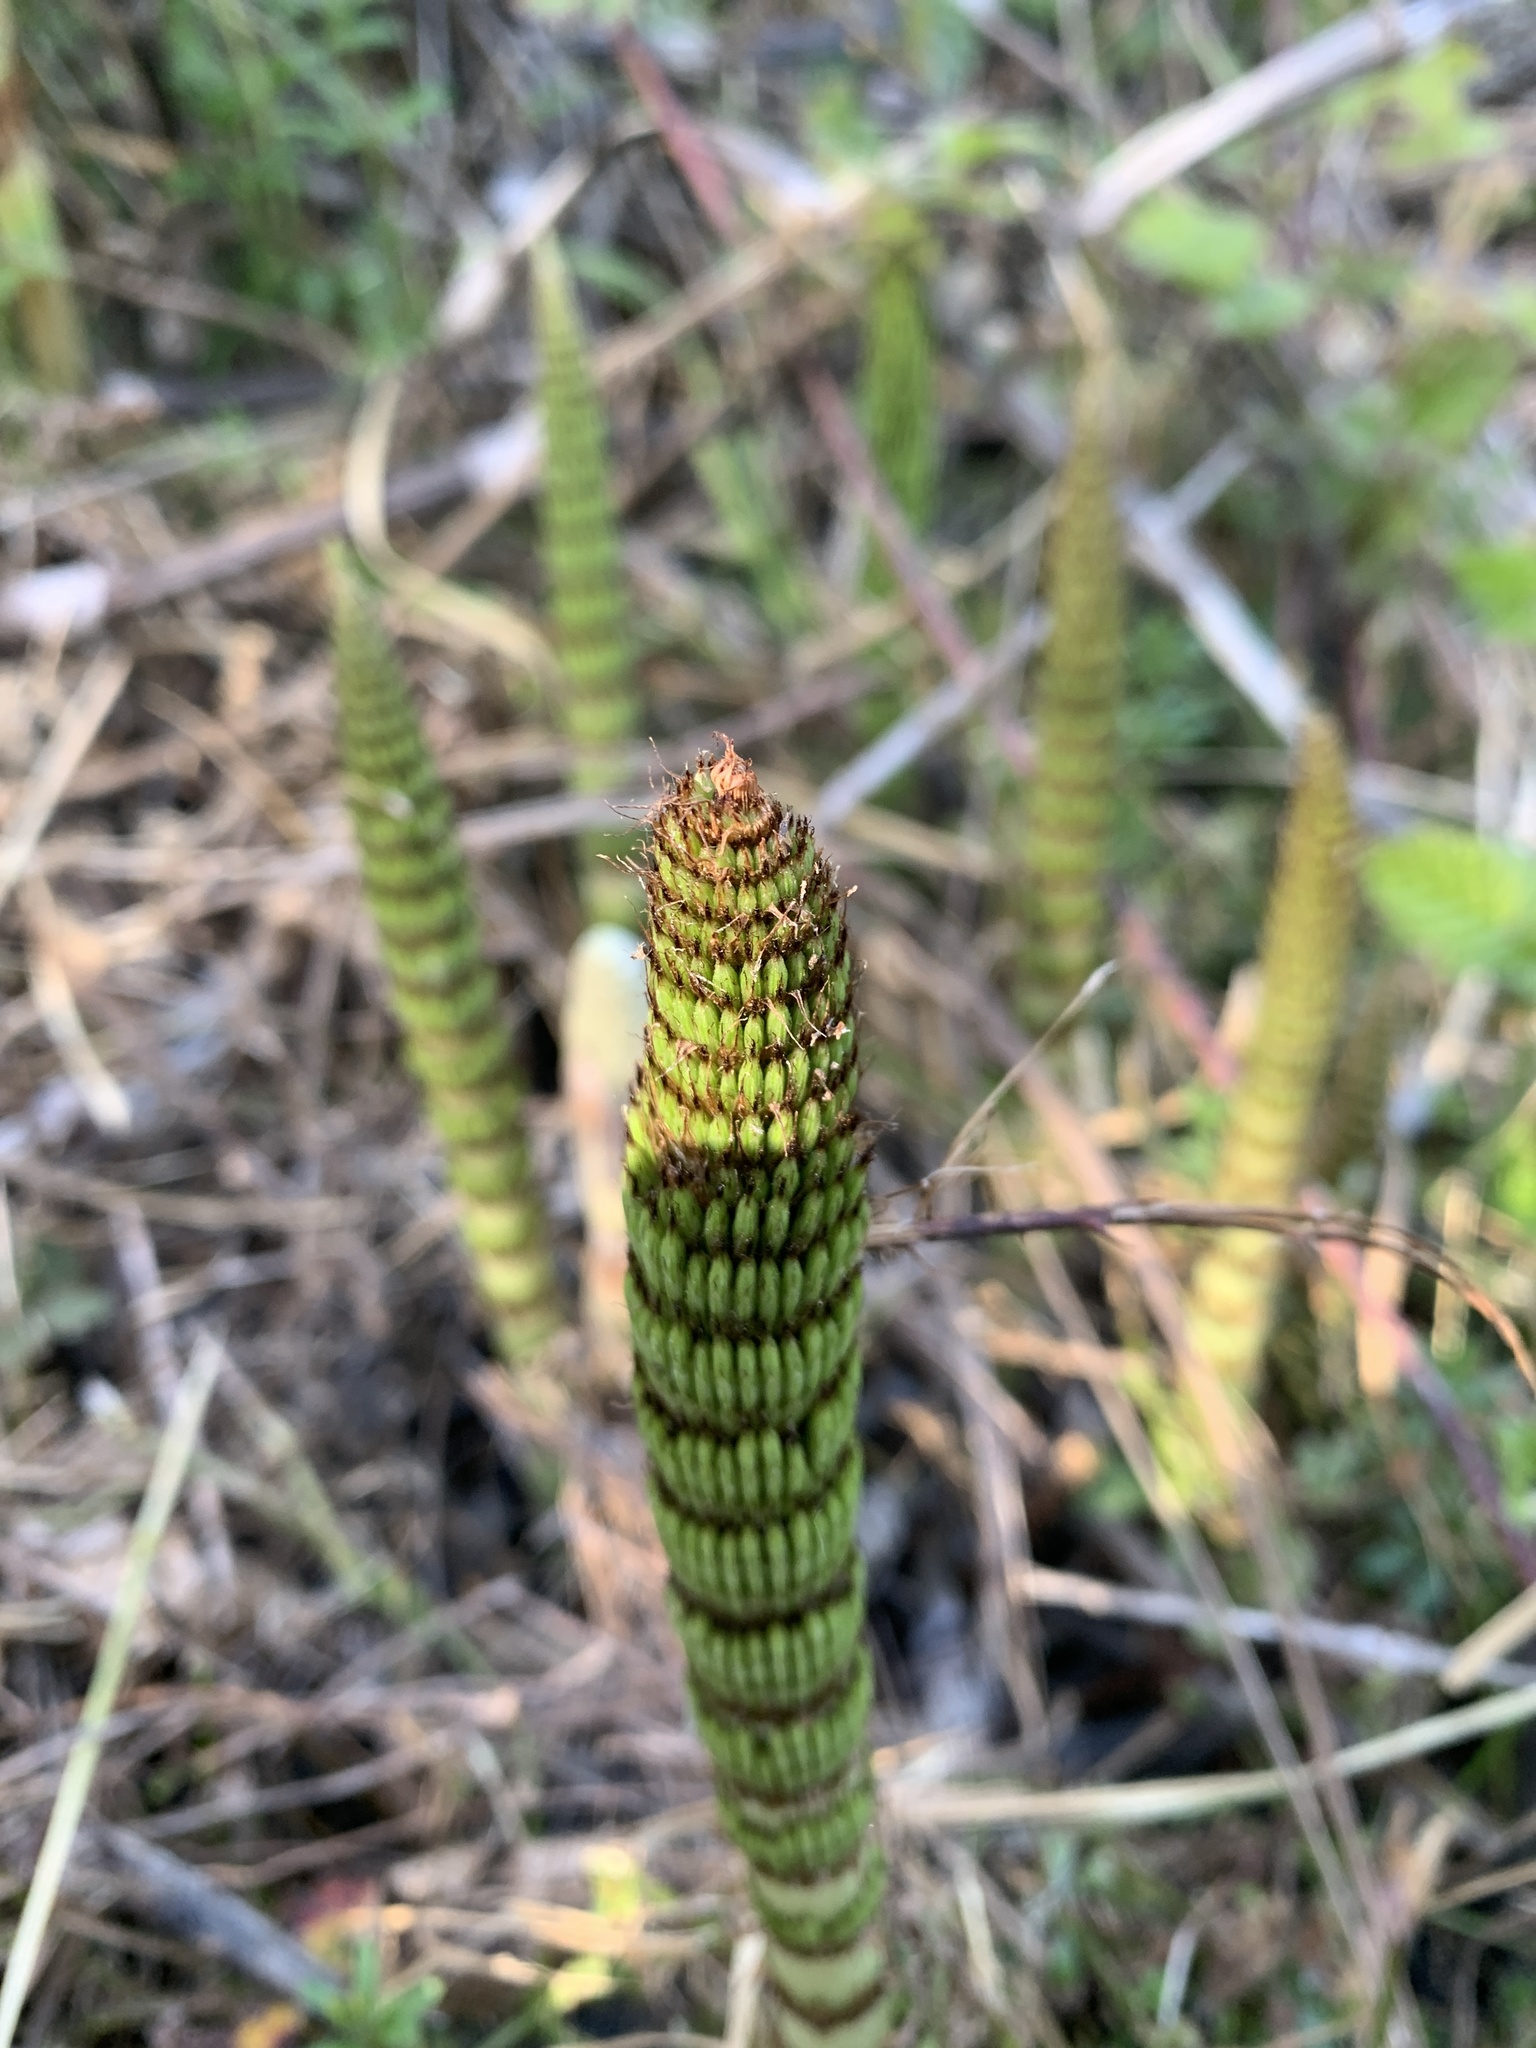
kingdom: Plantae
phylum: Tracheophyta
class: Polypodiopsida
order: Equisetales
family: Equisetaceae
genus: Equisetum
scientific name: Equisetum telmateia
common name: Great horsetail
